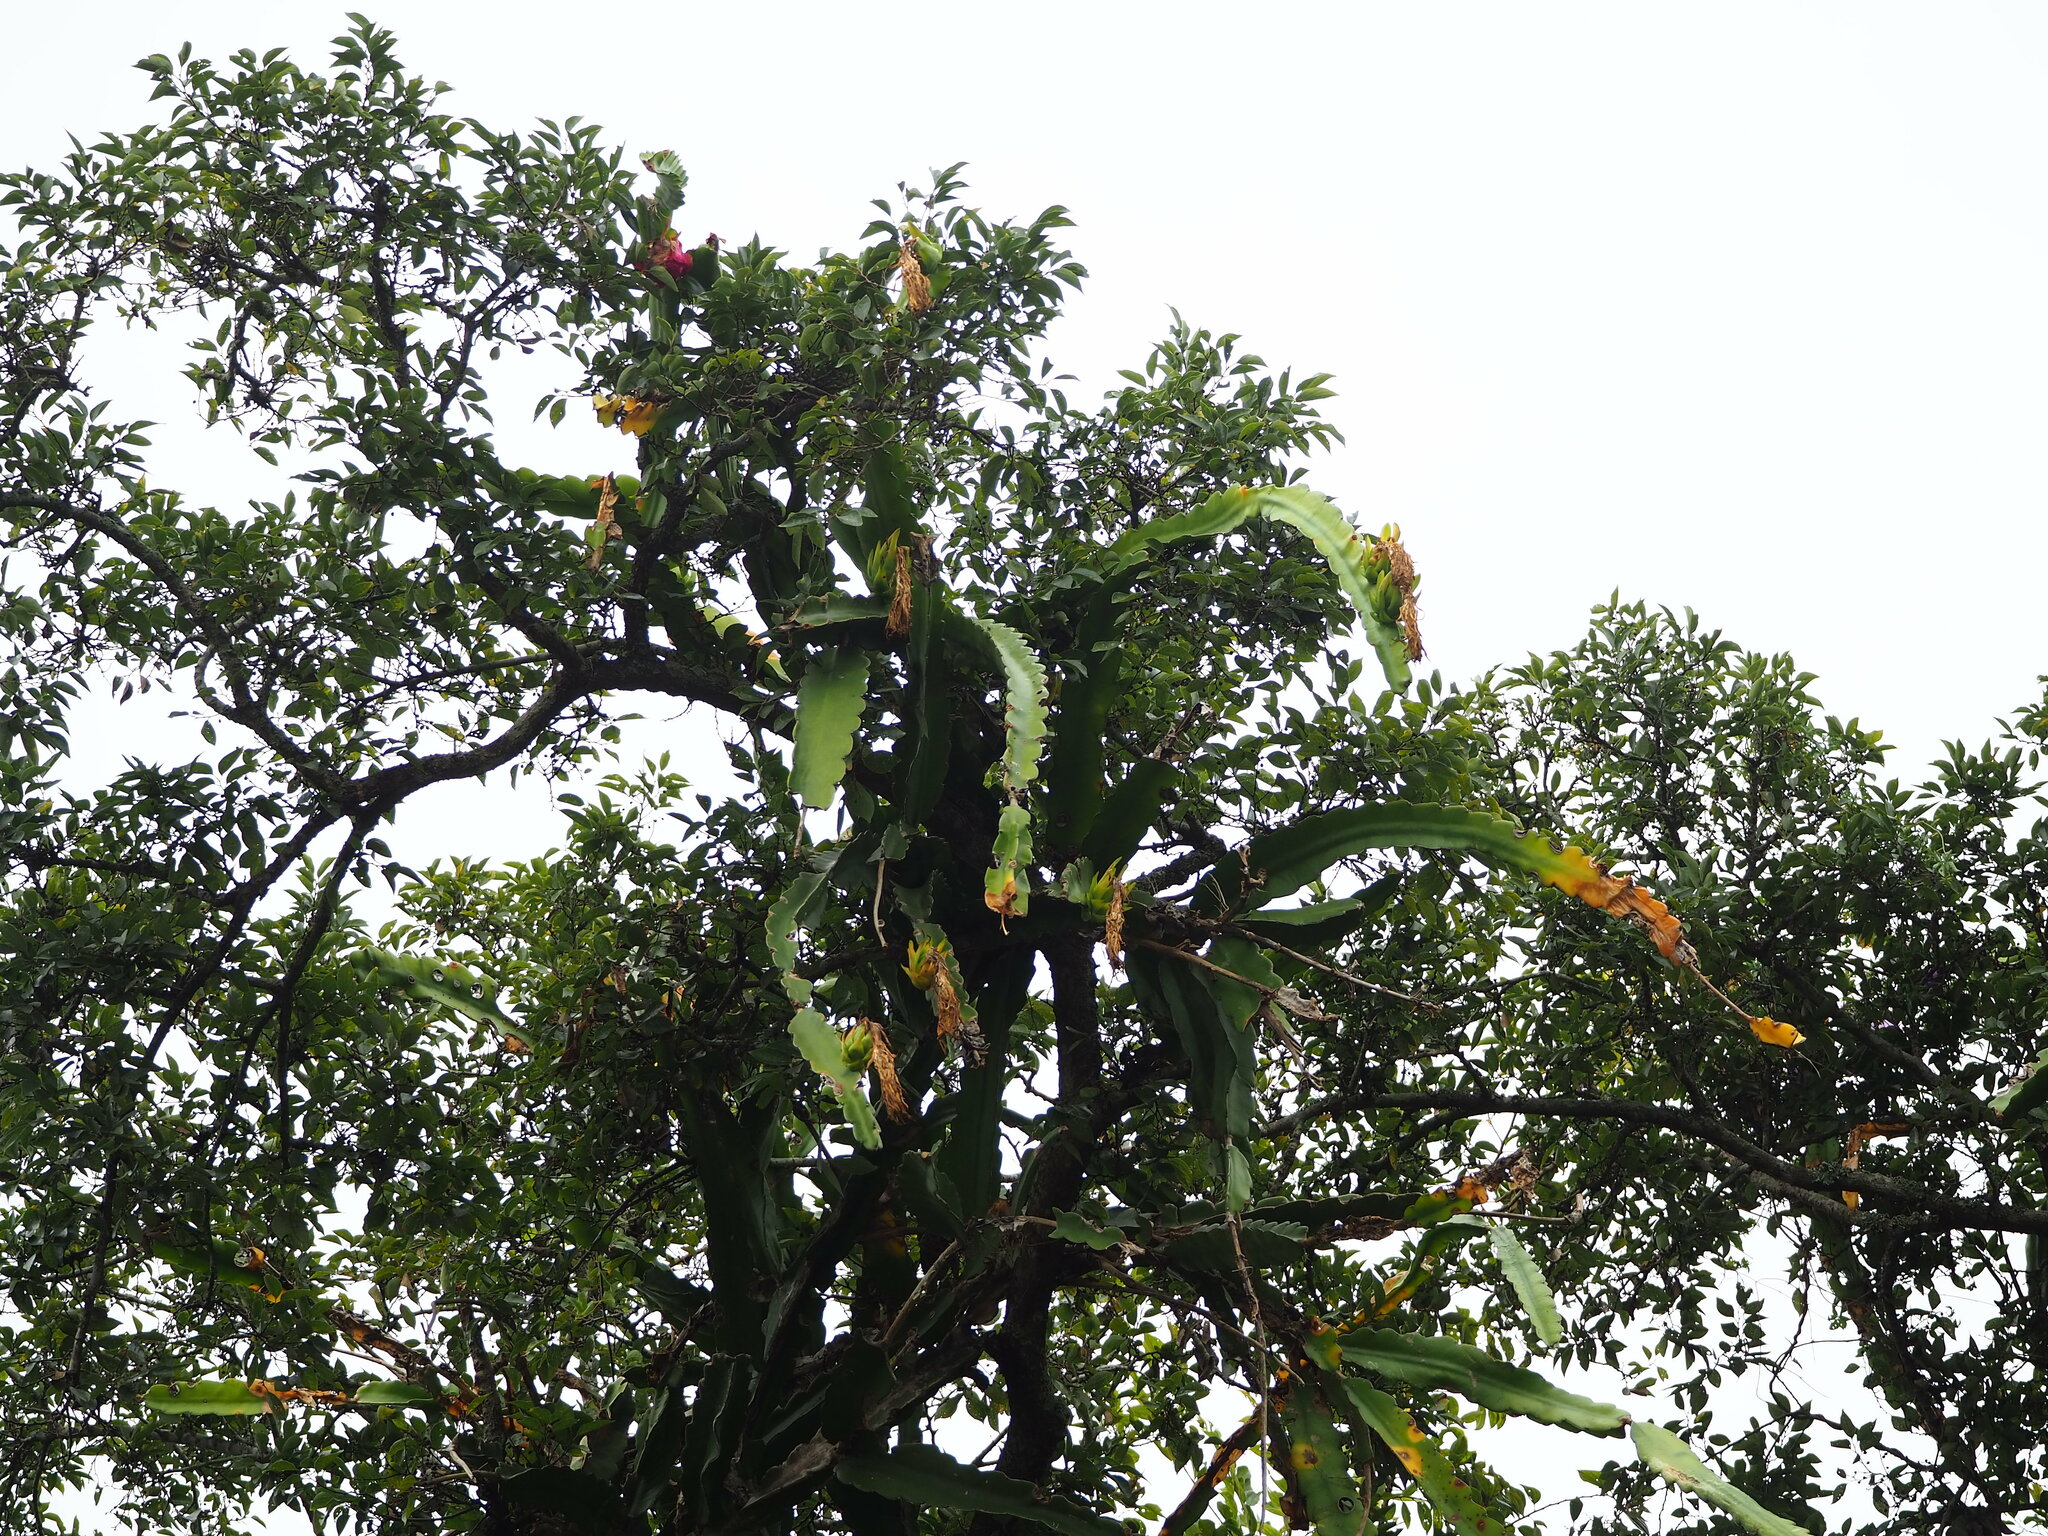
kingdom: Plantae
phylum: Tracheophyta
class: Magnoliopsida
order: Caryophyllales
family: Cactaceae
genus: Selenicereus
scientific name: Selenicereus undatus
